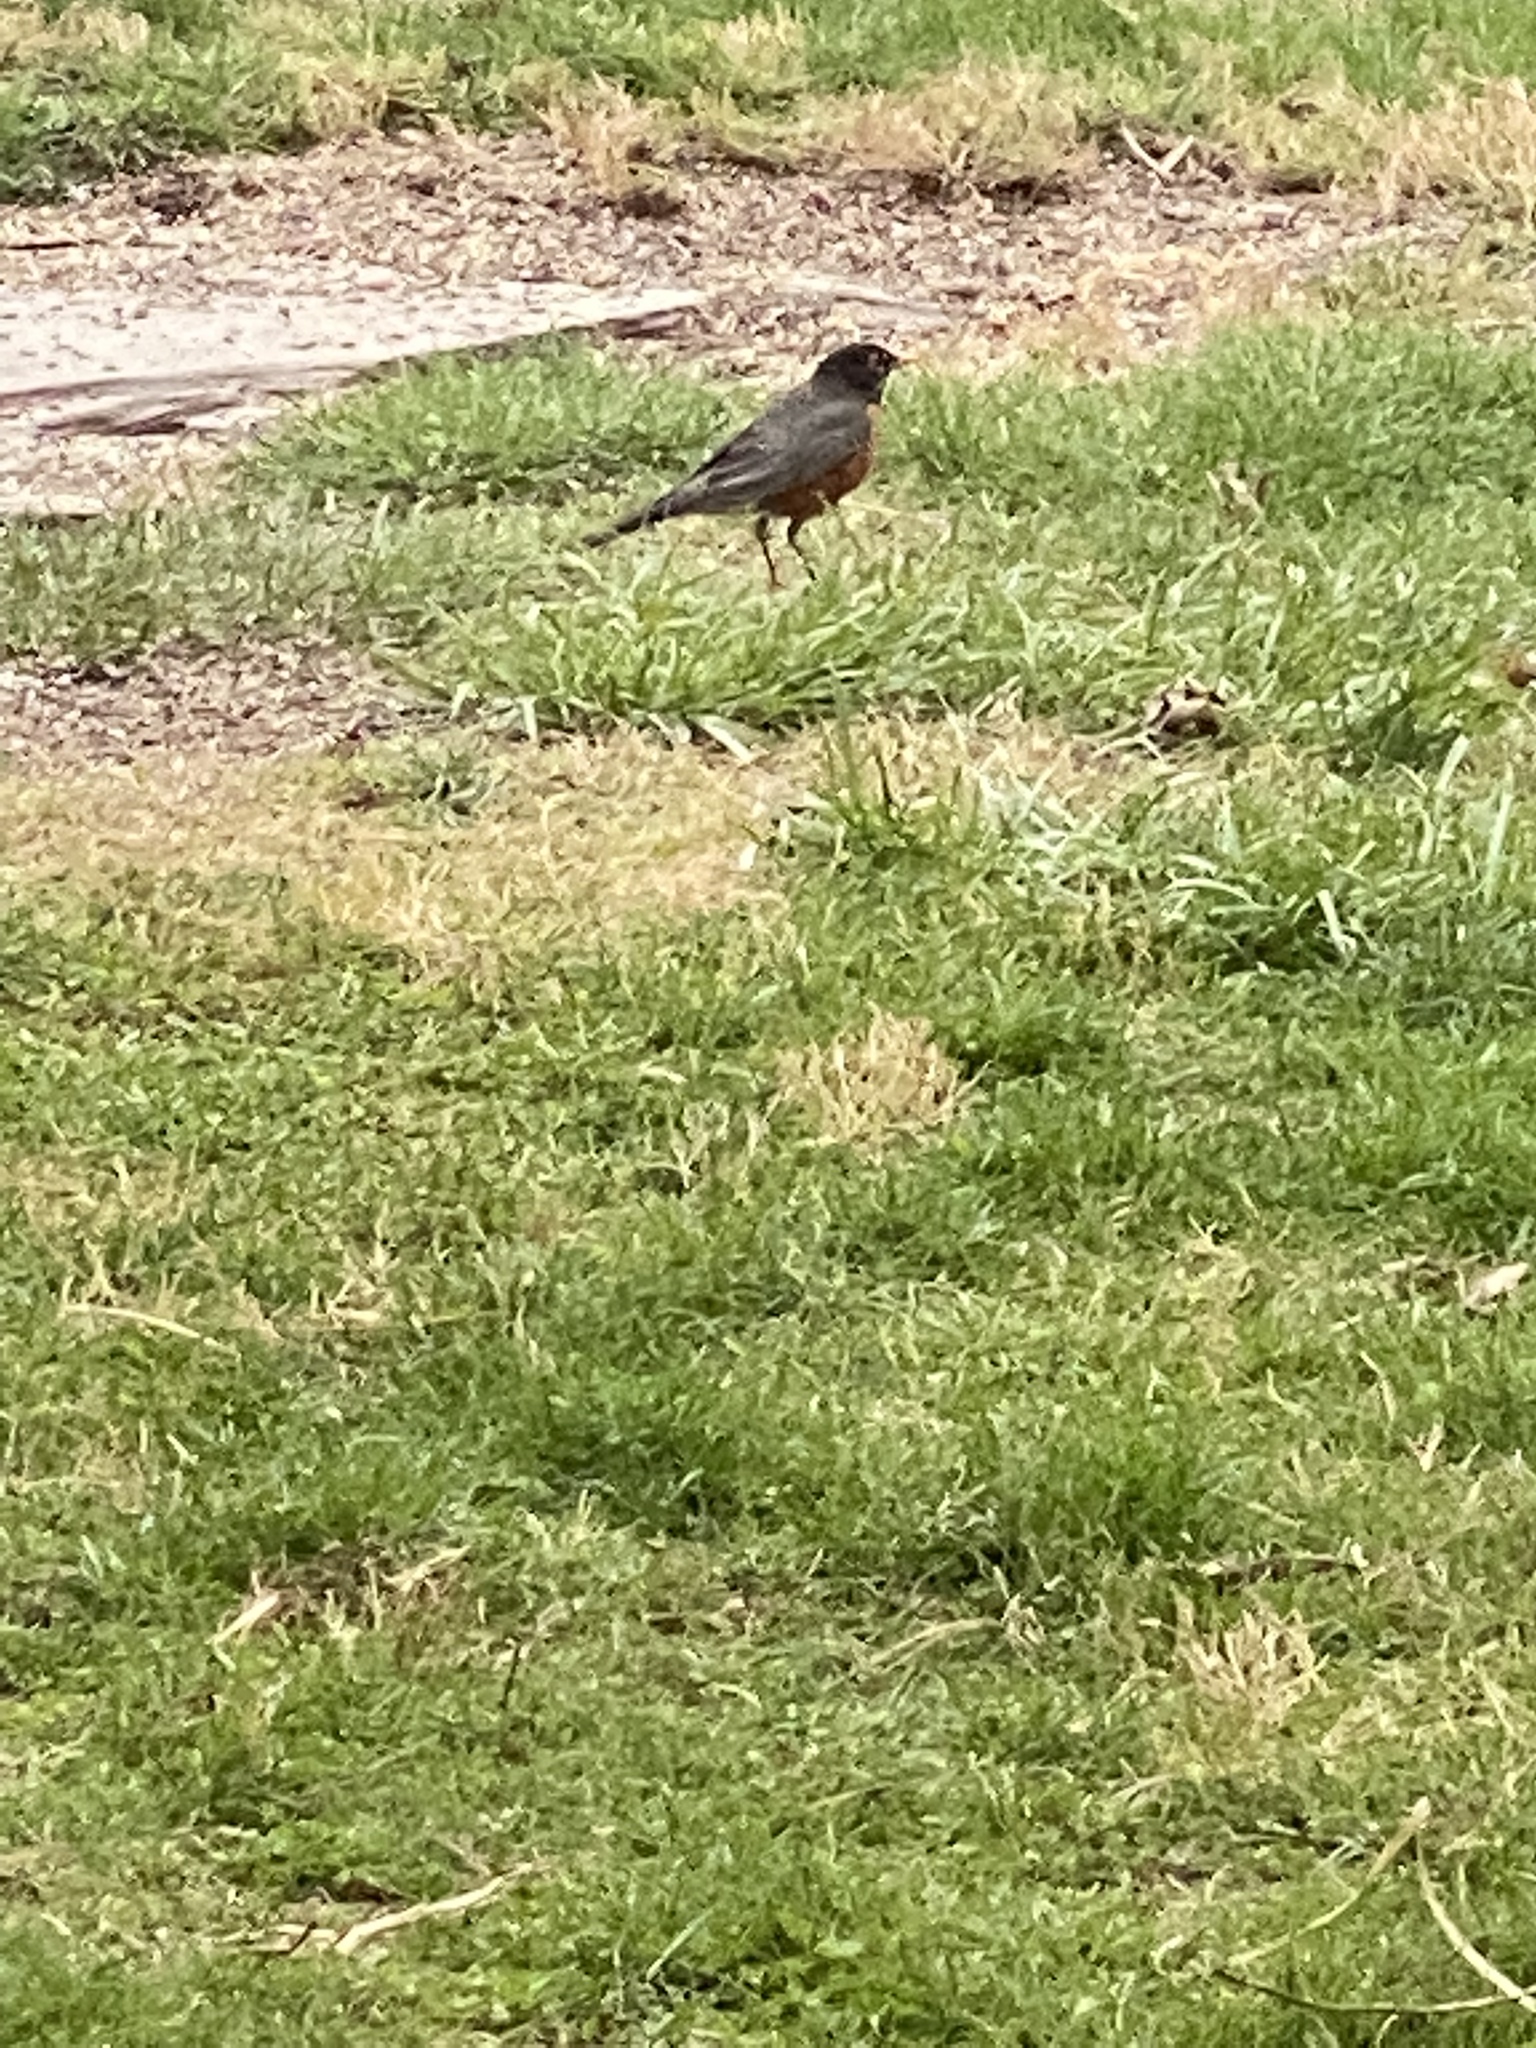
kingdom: Animalia
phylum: Chordata
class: Aves
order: Passeriformes
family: Turdidae
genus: Turdus
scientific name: Turdus migratorius
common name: American robin
